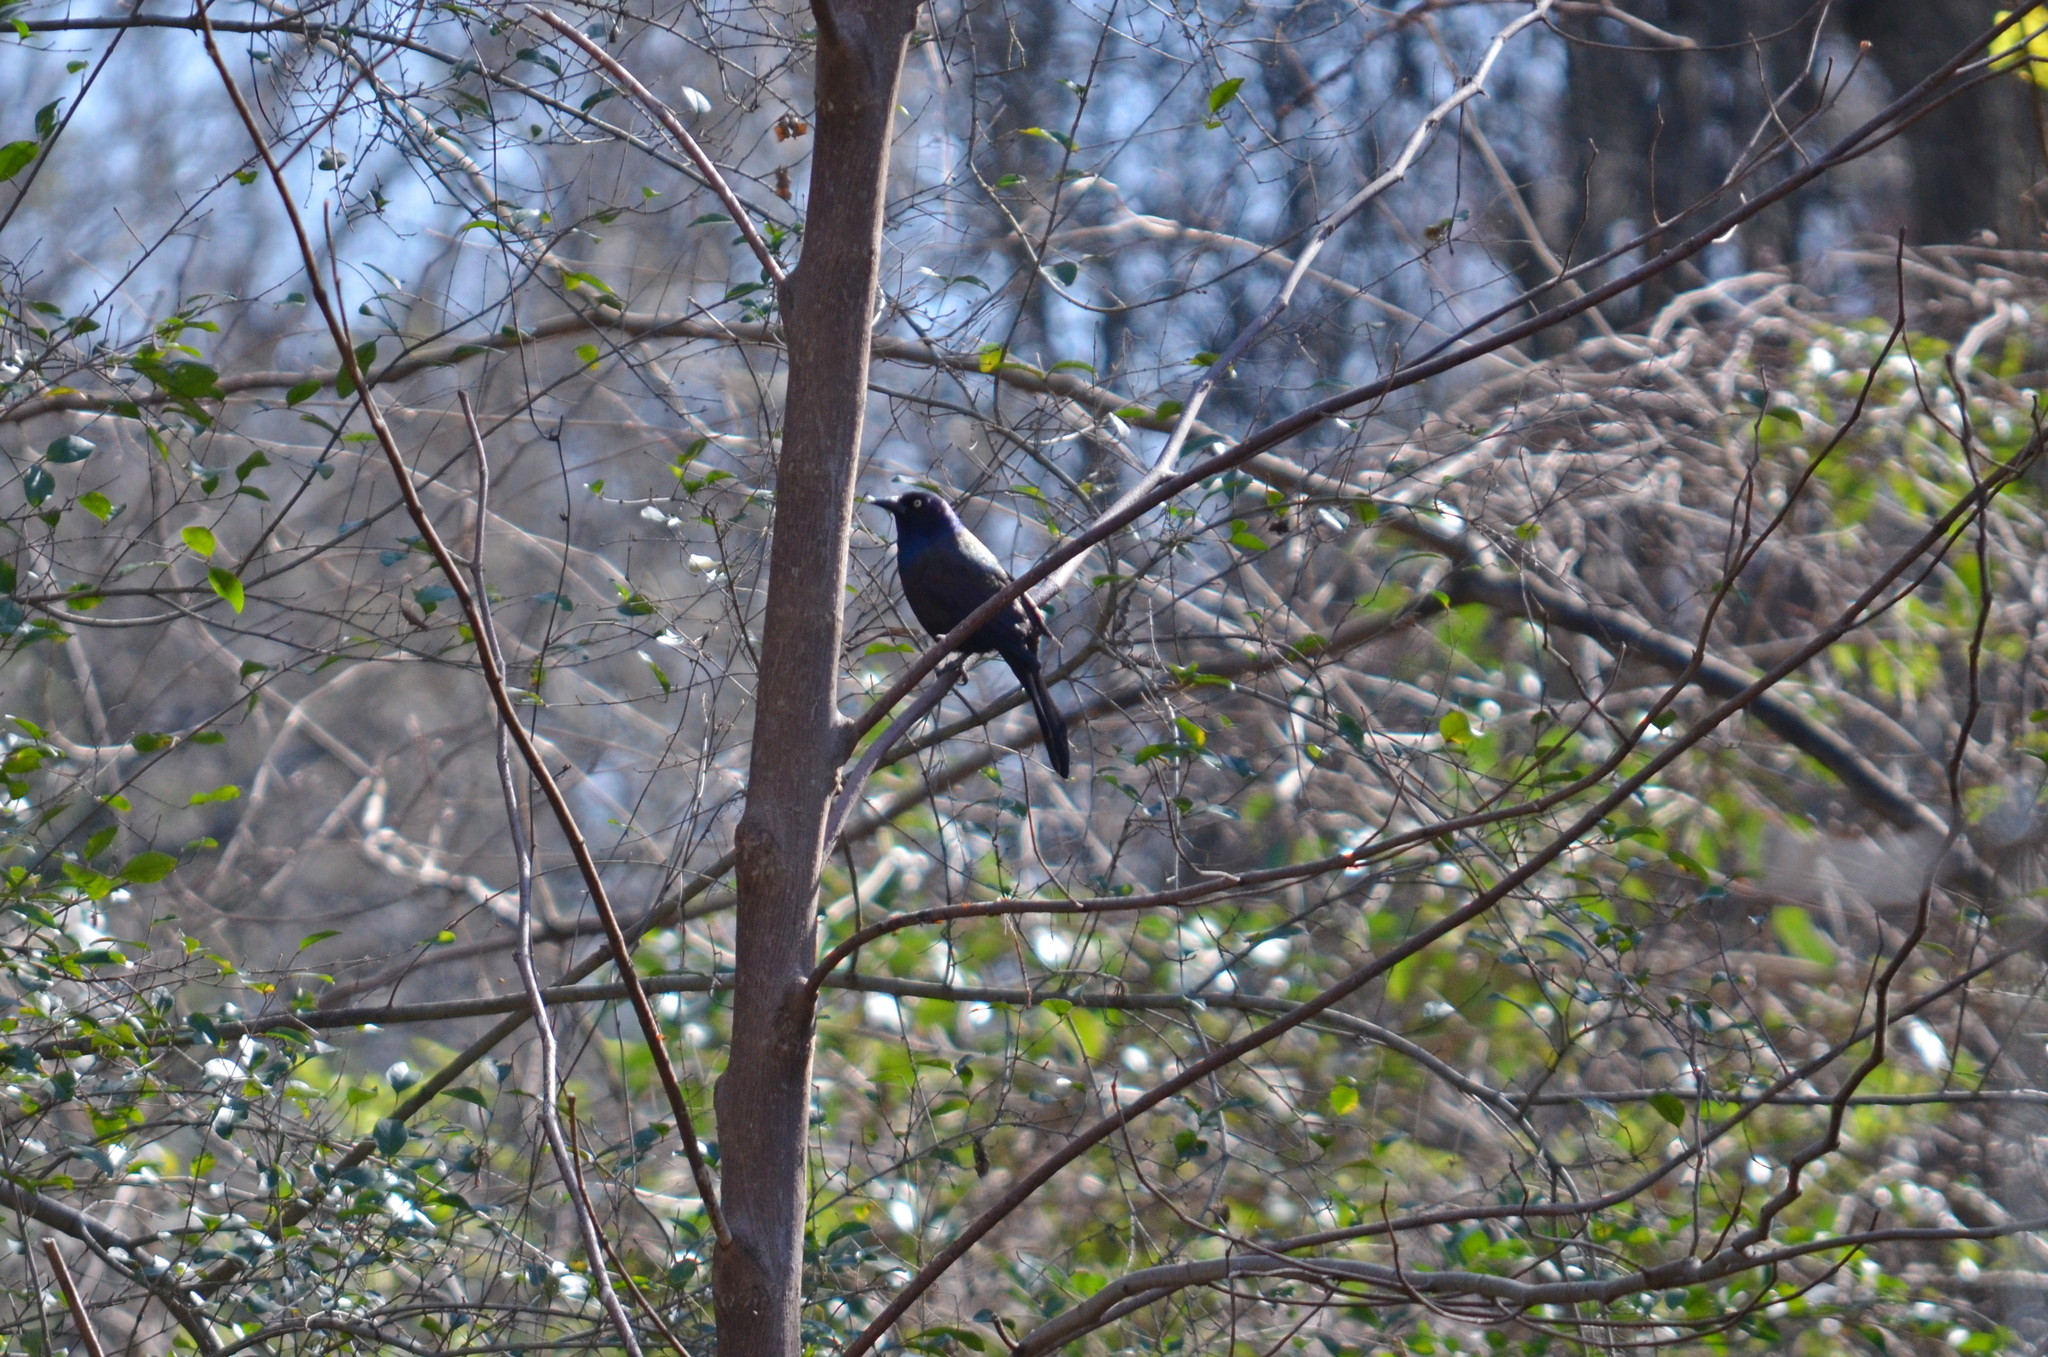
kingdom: Animalia
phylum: Chordata
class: Aves
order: Passeriformes
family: Icteridae
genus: Quiscalus
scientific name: Quiscalus quiscula
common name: Common grackle
